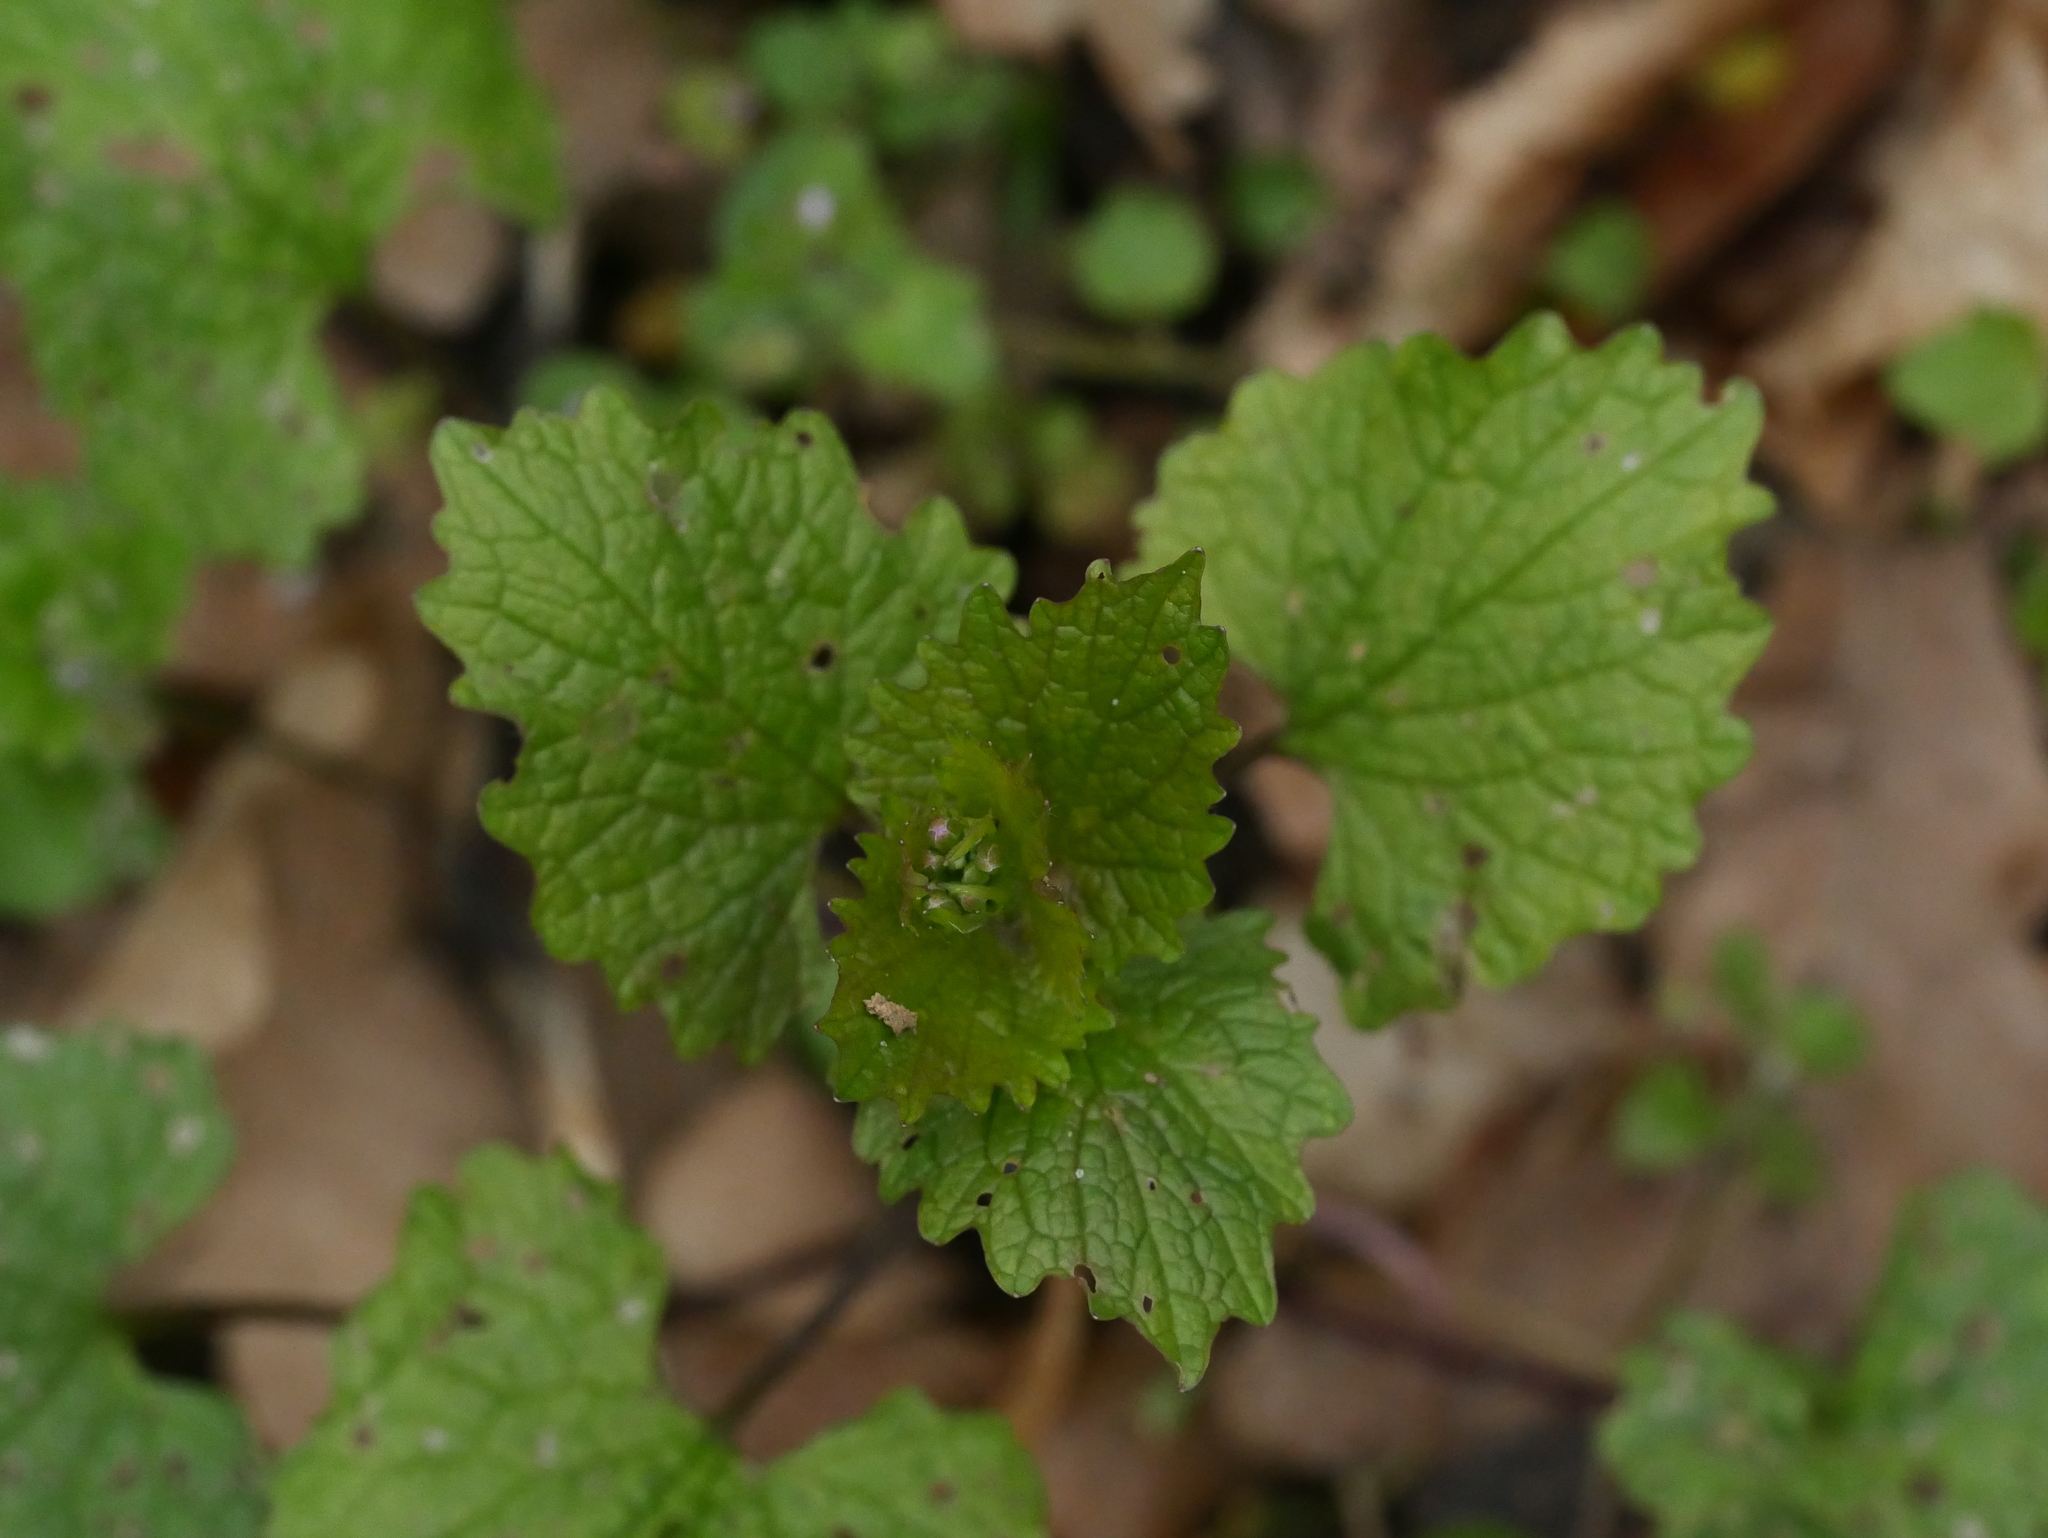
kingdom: Plantae
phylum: Tracheophyta
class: Magnoliopsida
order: Brassicales
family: Brassicaceae
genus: Alliaria
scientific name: Alliaria petiolata
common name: Garlic mustard
